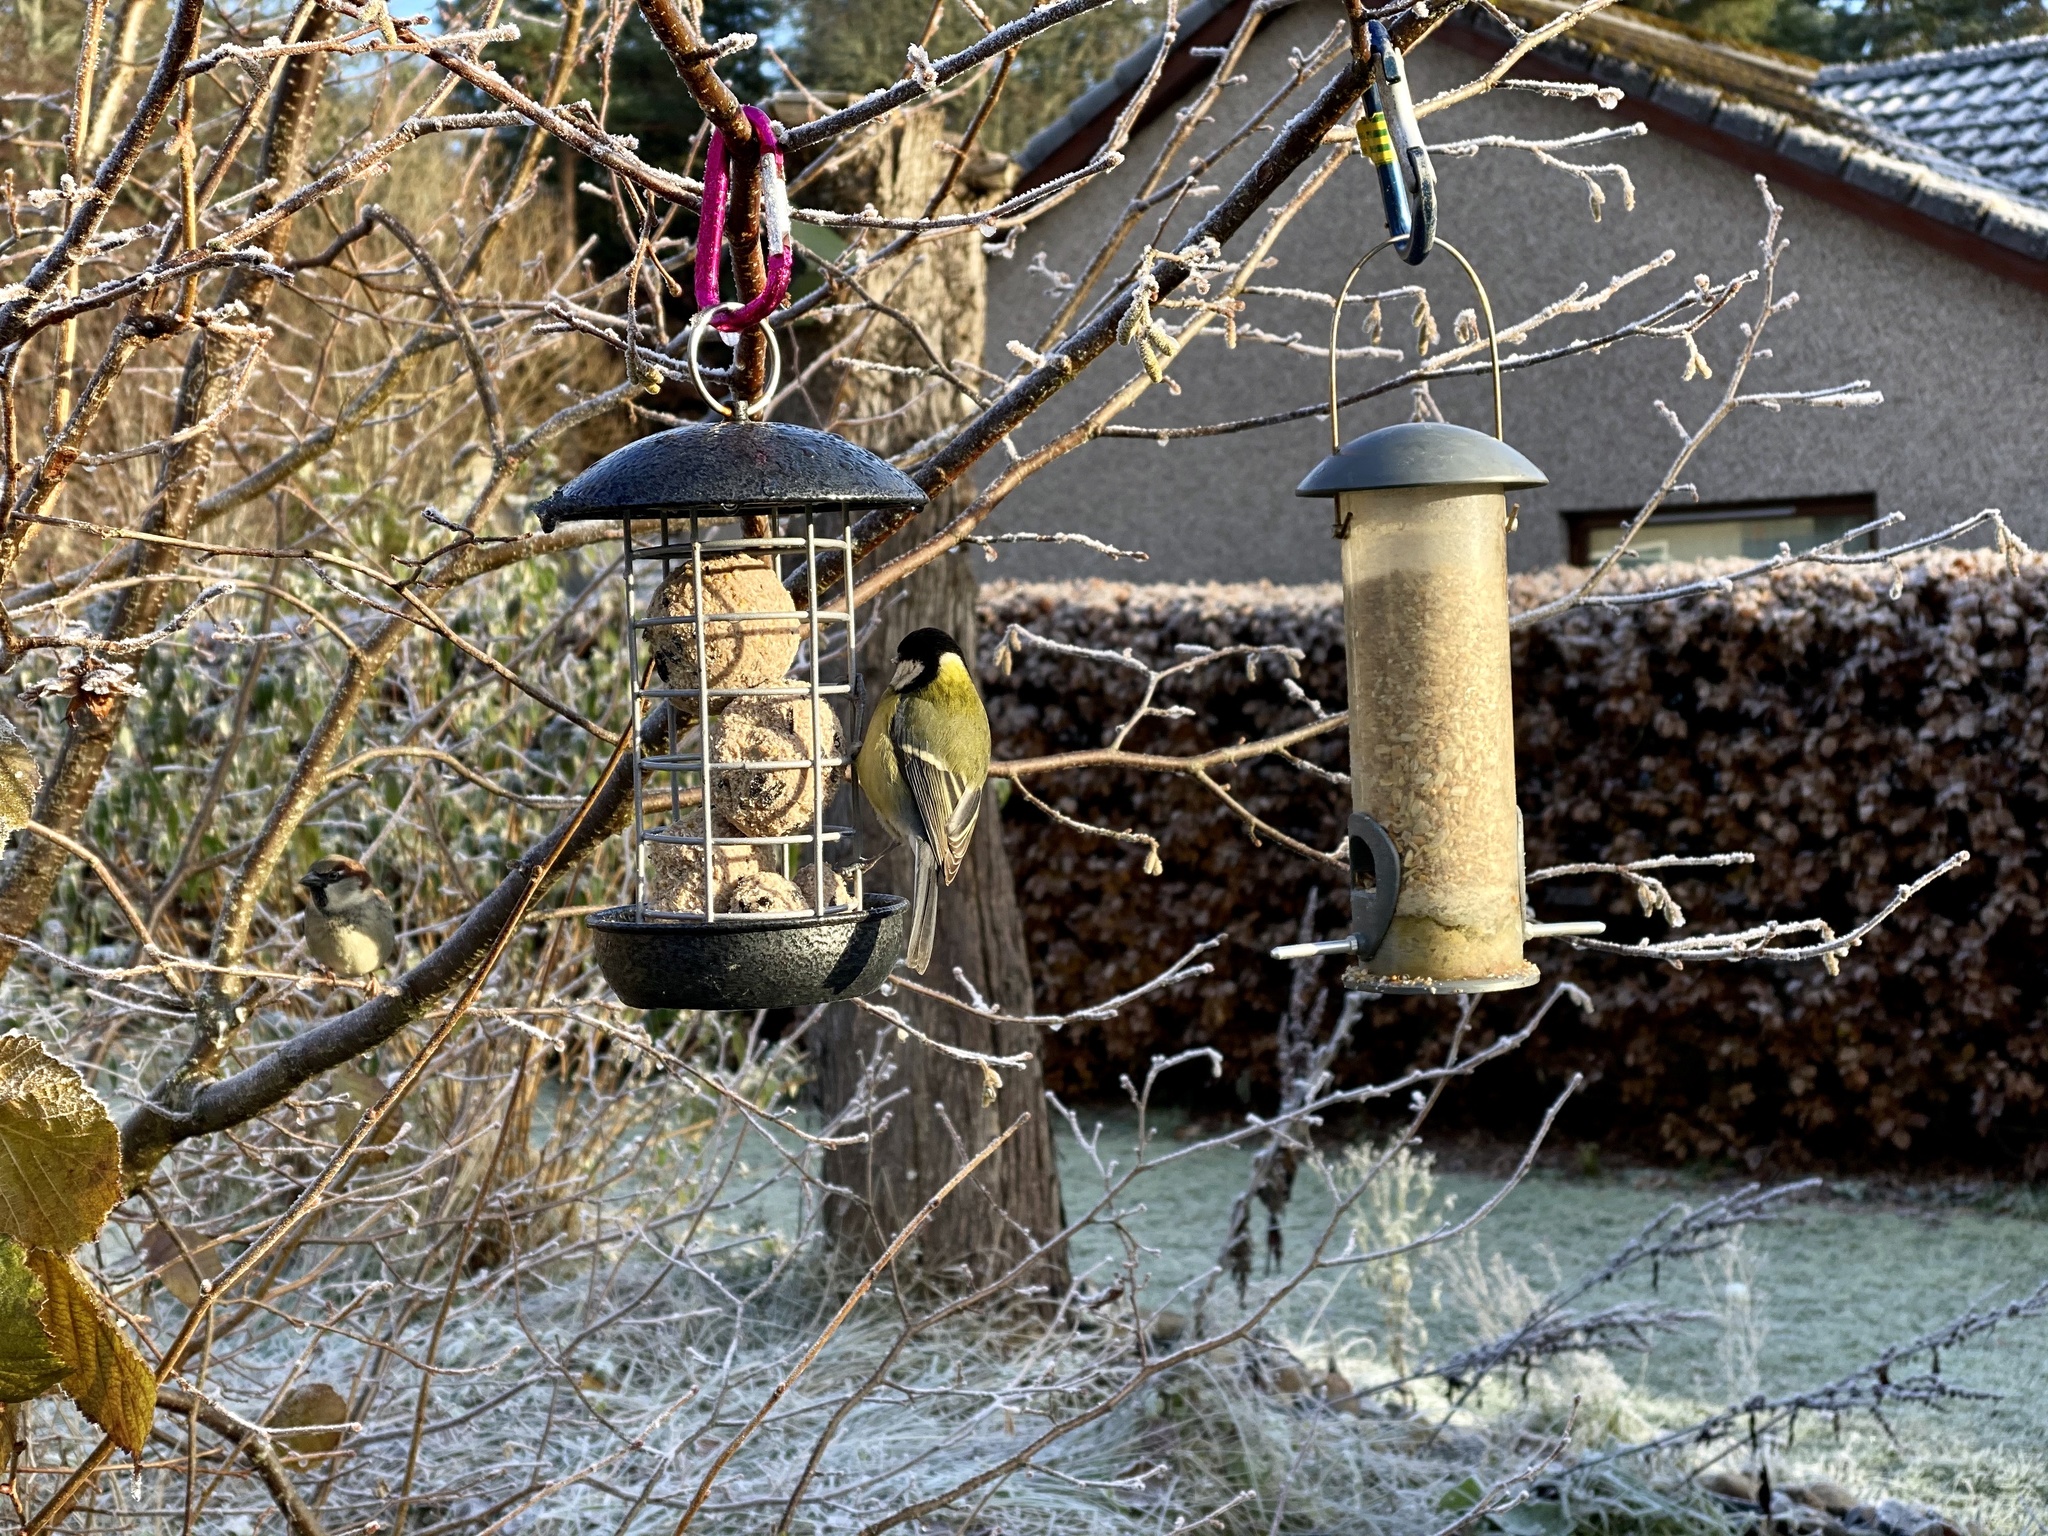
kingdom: Animalia
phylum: Chordata
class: Aves
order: Passeriformes
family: Paridae
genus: Parus
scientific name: Parus major
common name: Great tit
